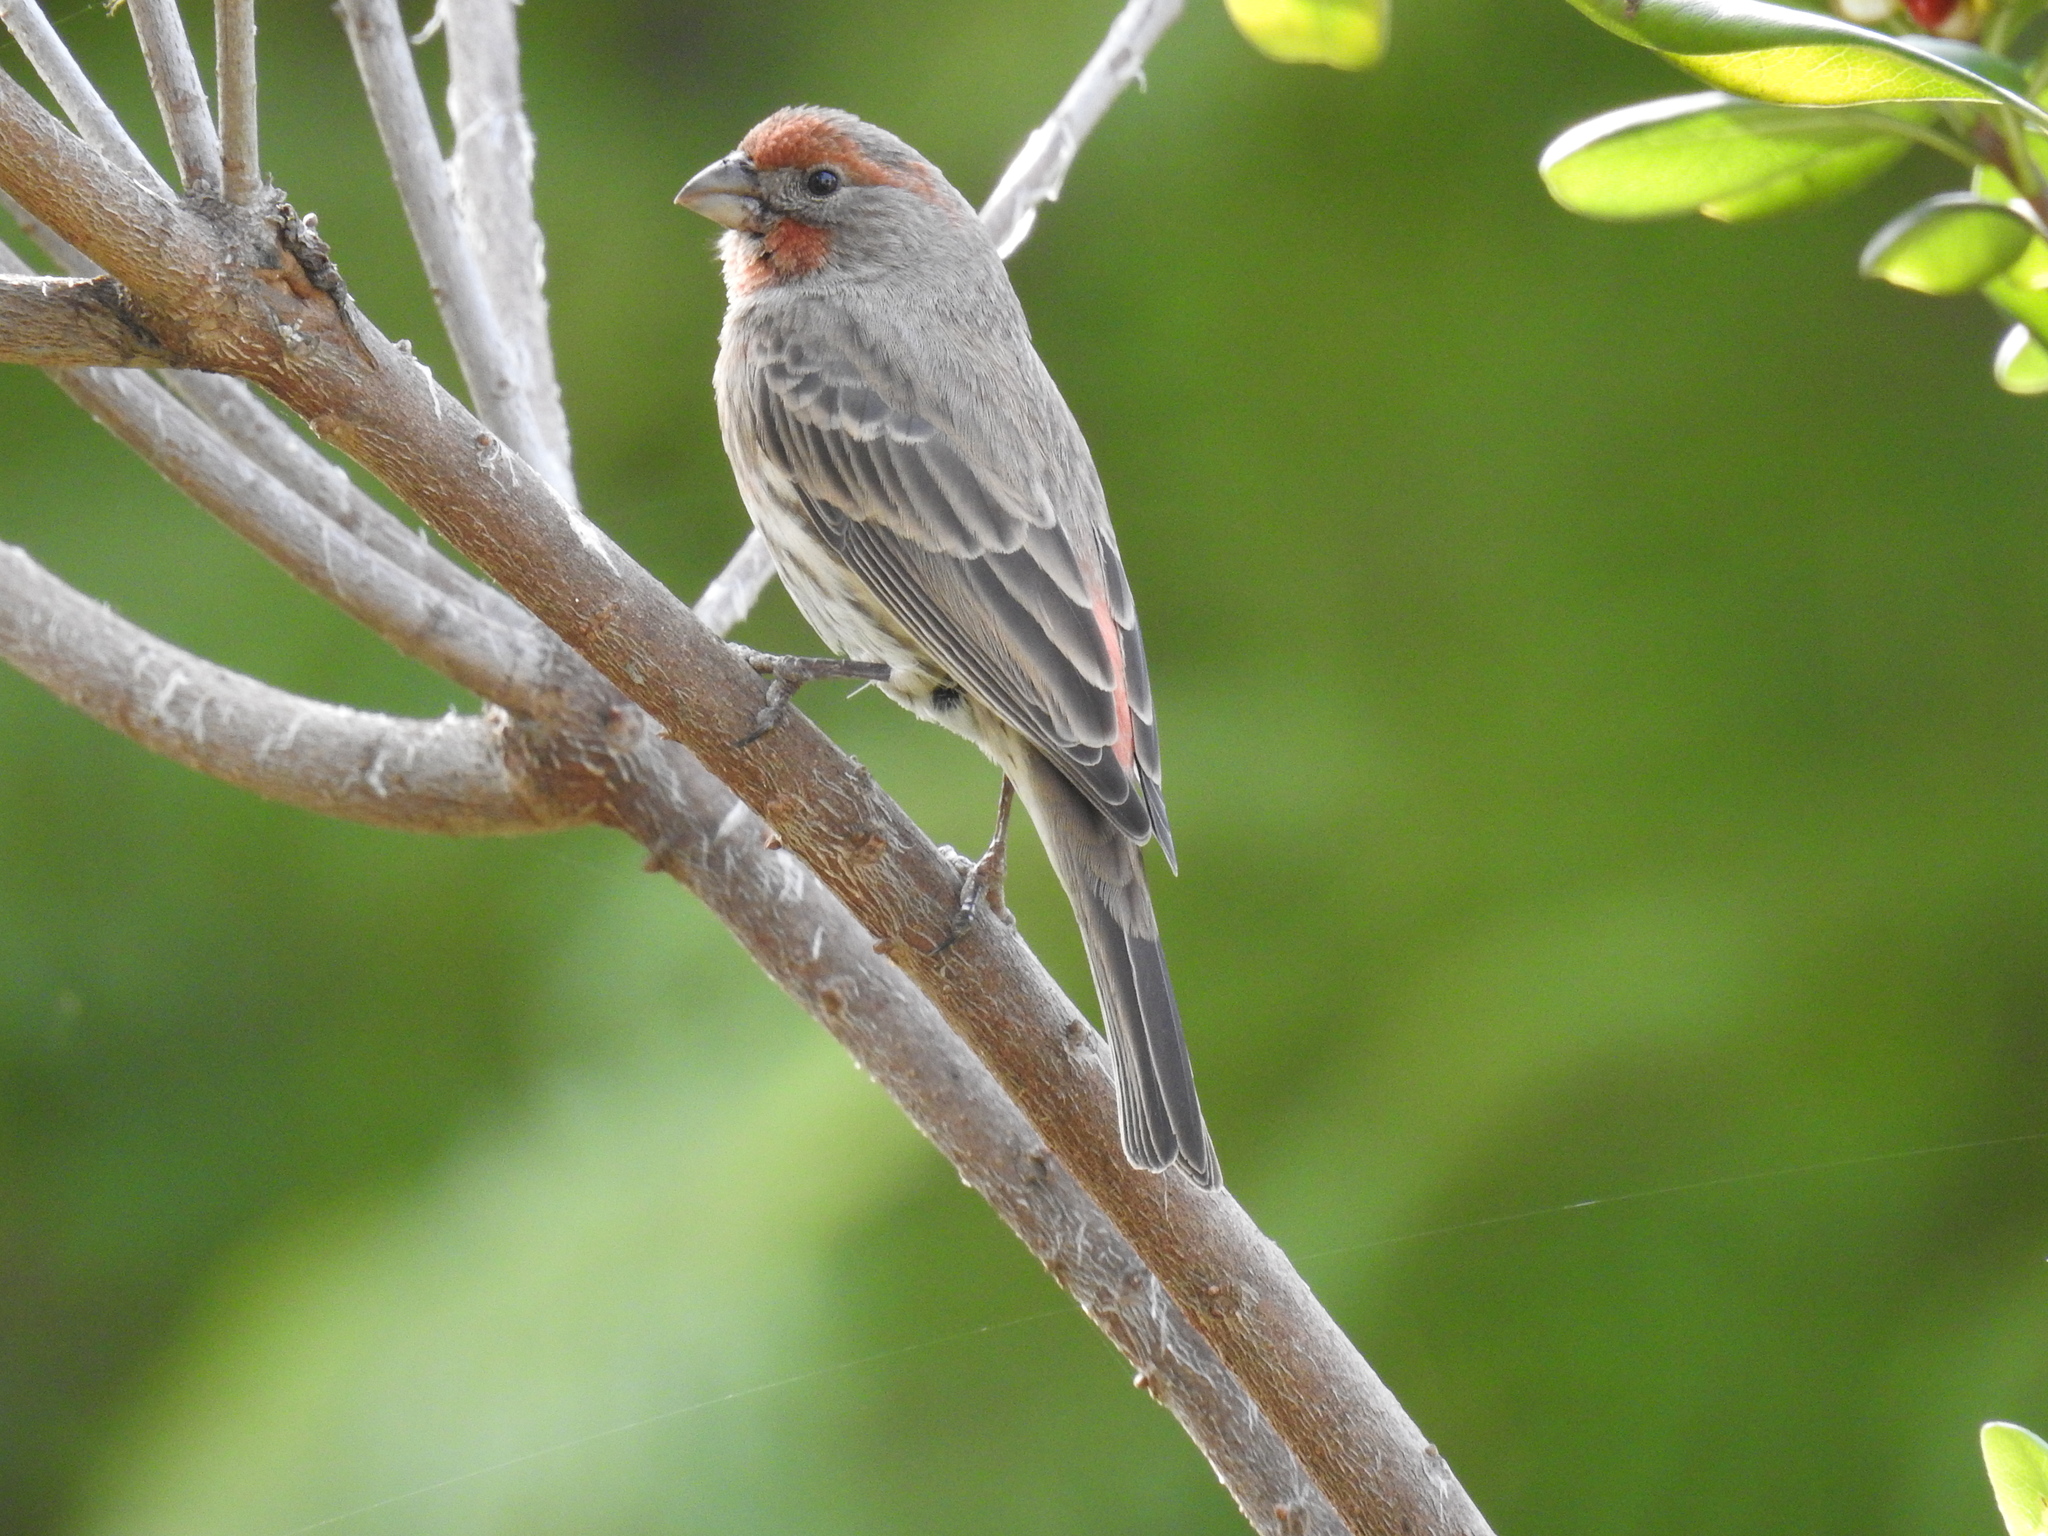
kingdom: Animalia
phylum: Chordata
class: Aves
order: Passeriformes
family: Fringillidae
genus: Haemorhous
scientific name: Haemorhous mexicanus
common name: House finch
